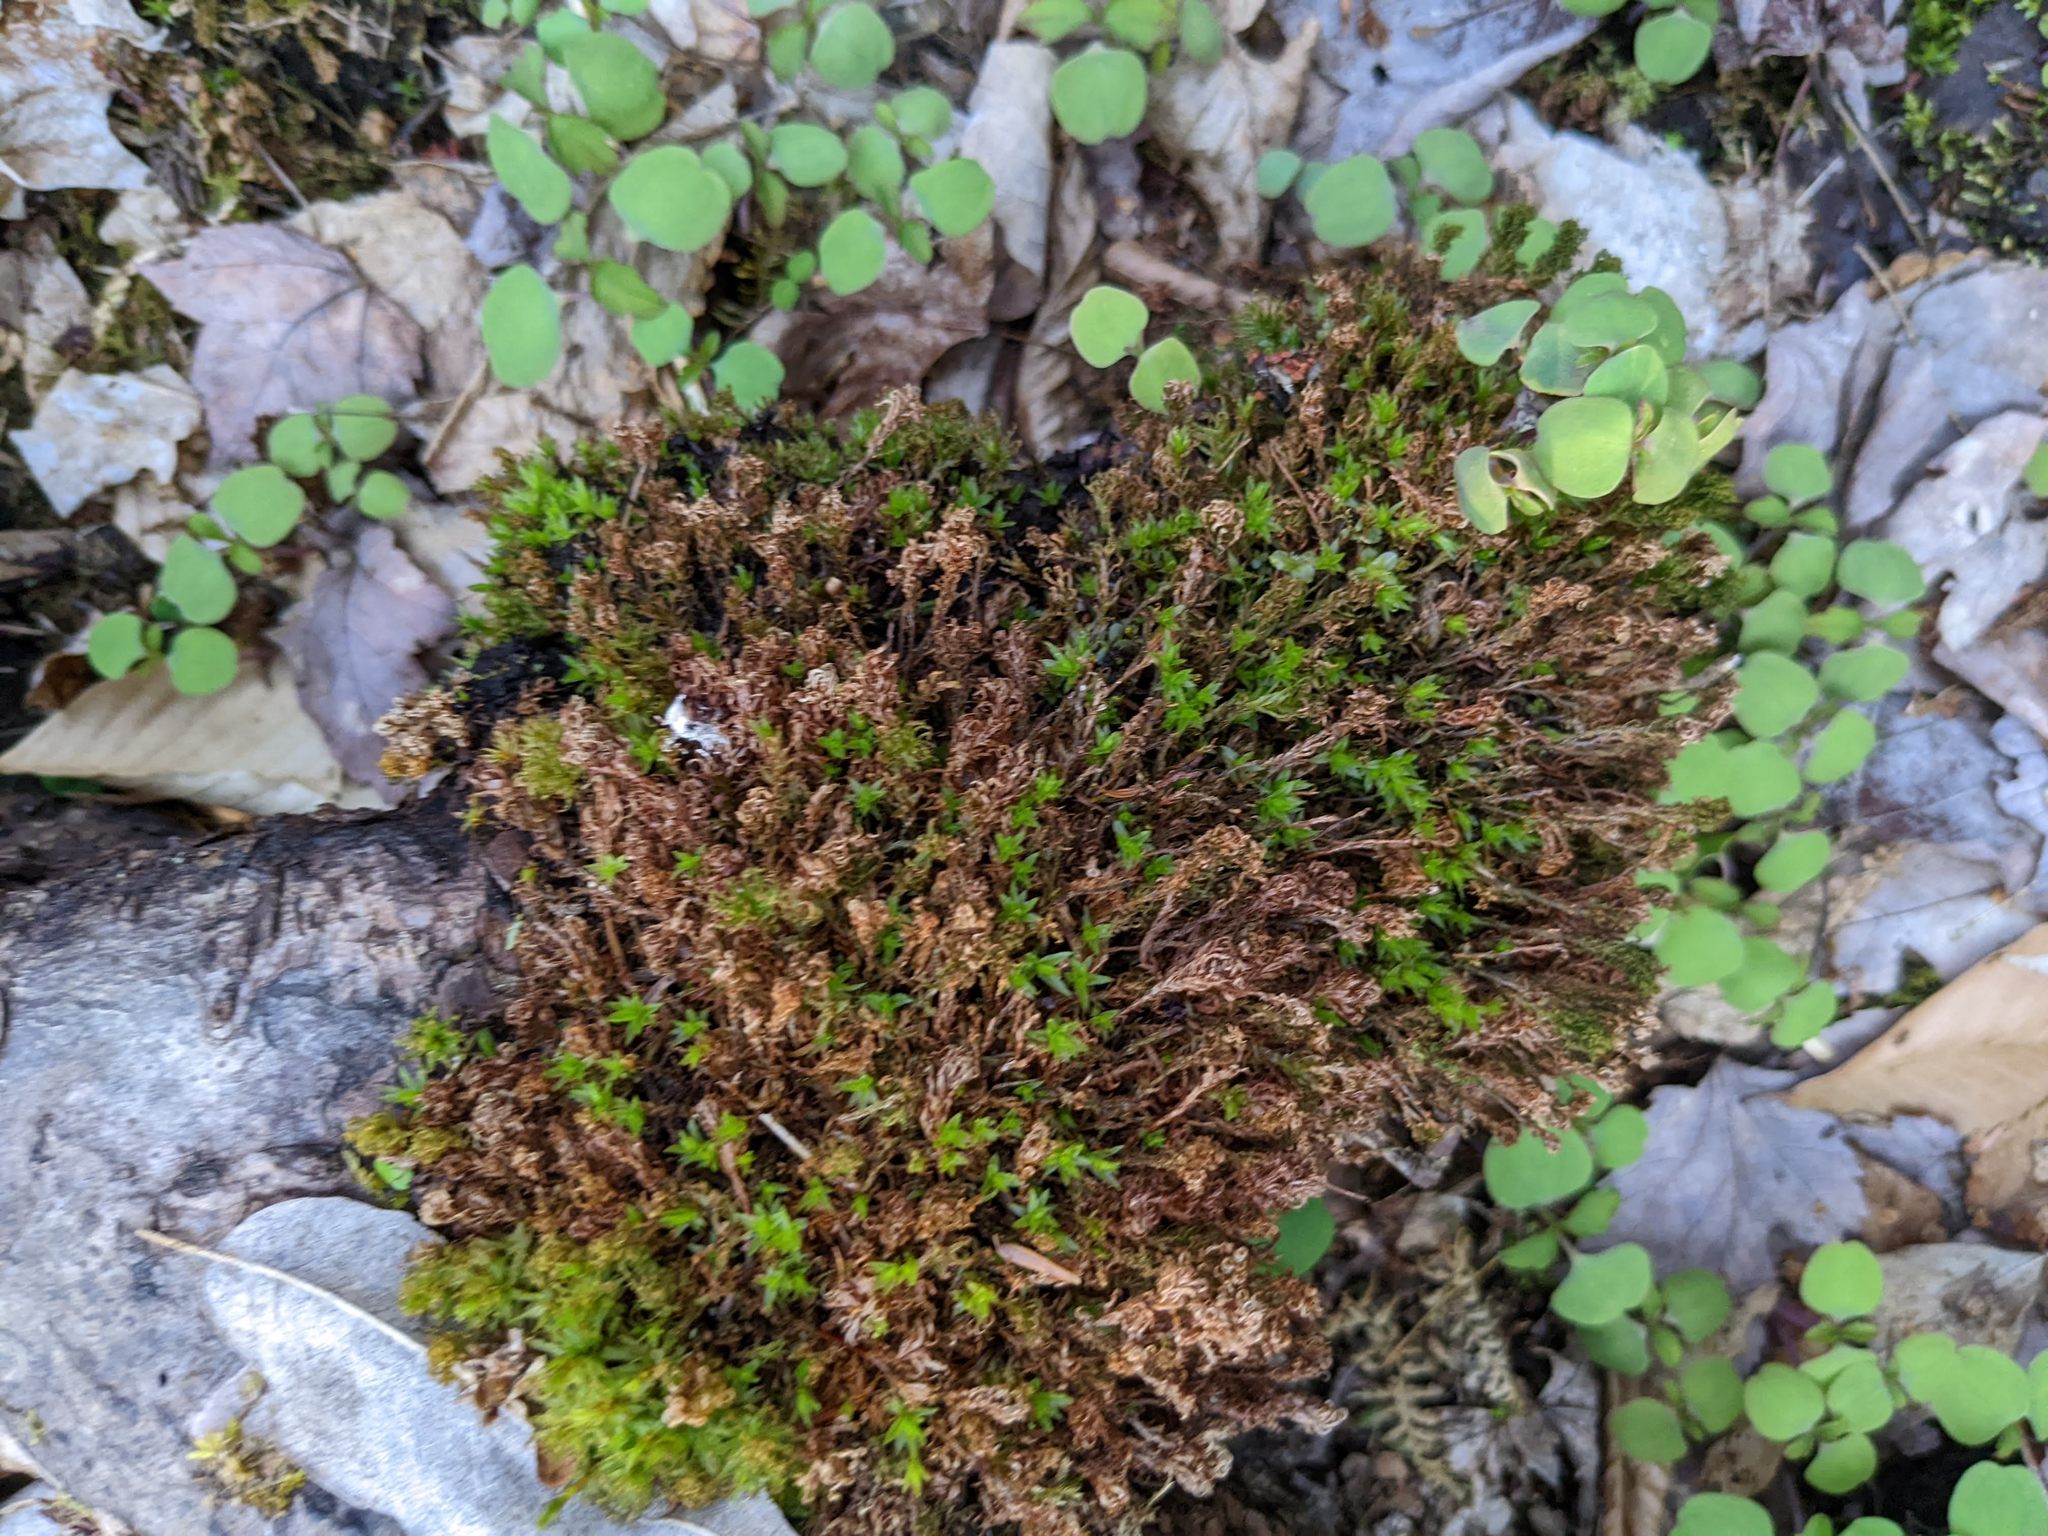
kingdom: Plantae
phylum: Tracheophyta
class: Magnoliopsida
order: Ericales
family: Balsaminaceae
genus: Impatiens
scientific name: Impatiens
